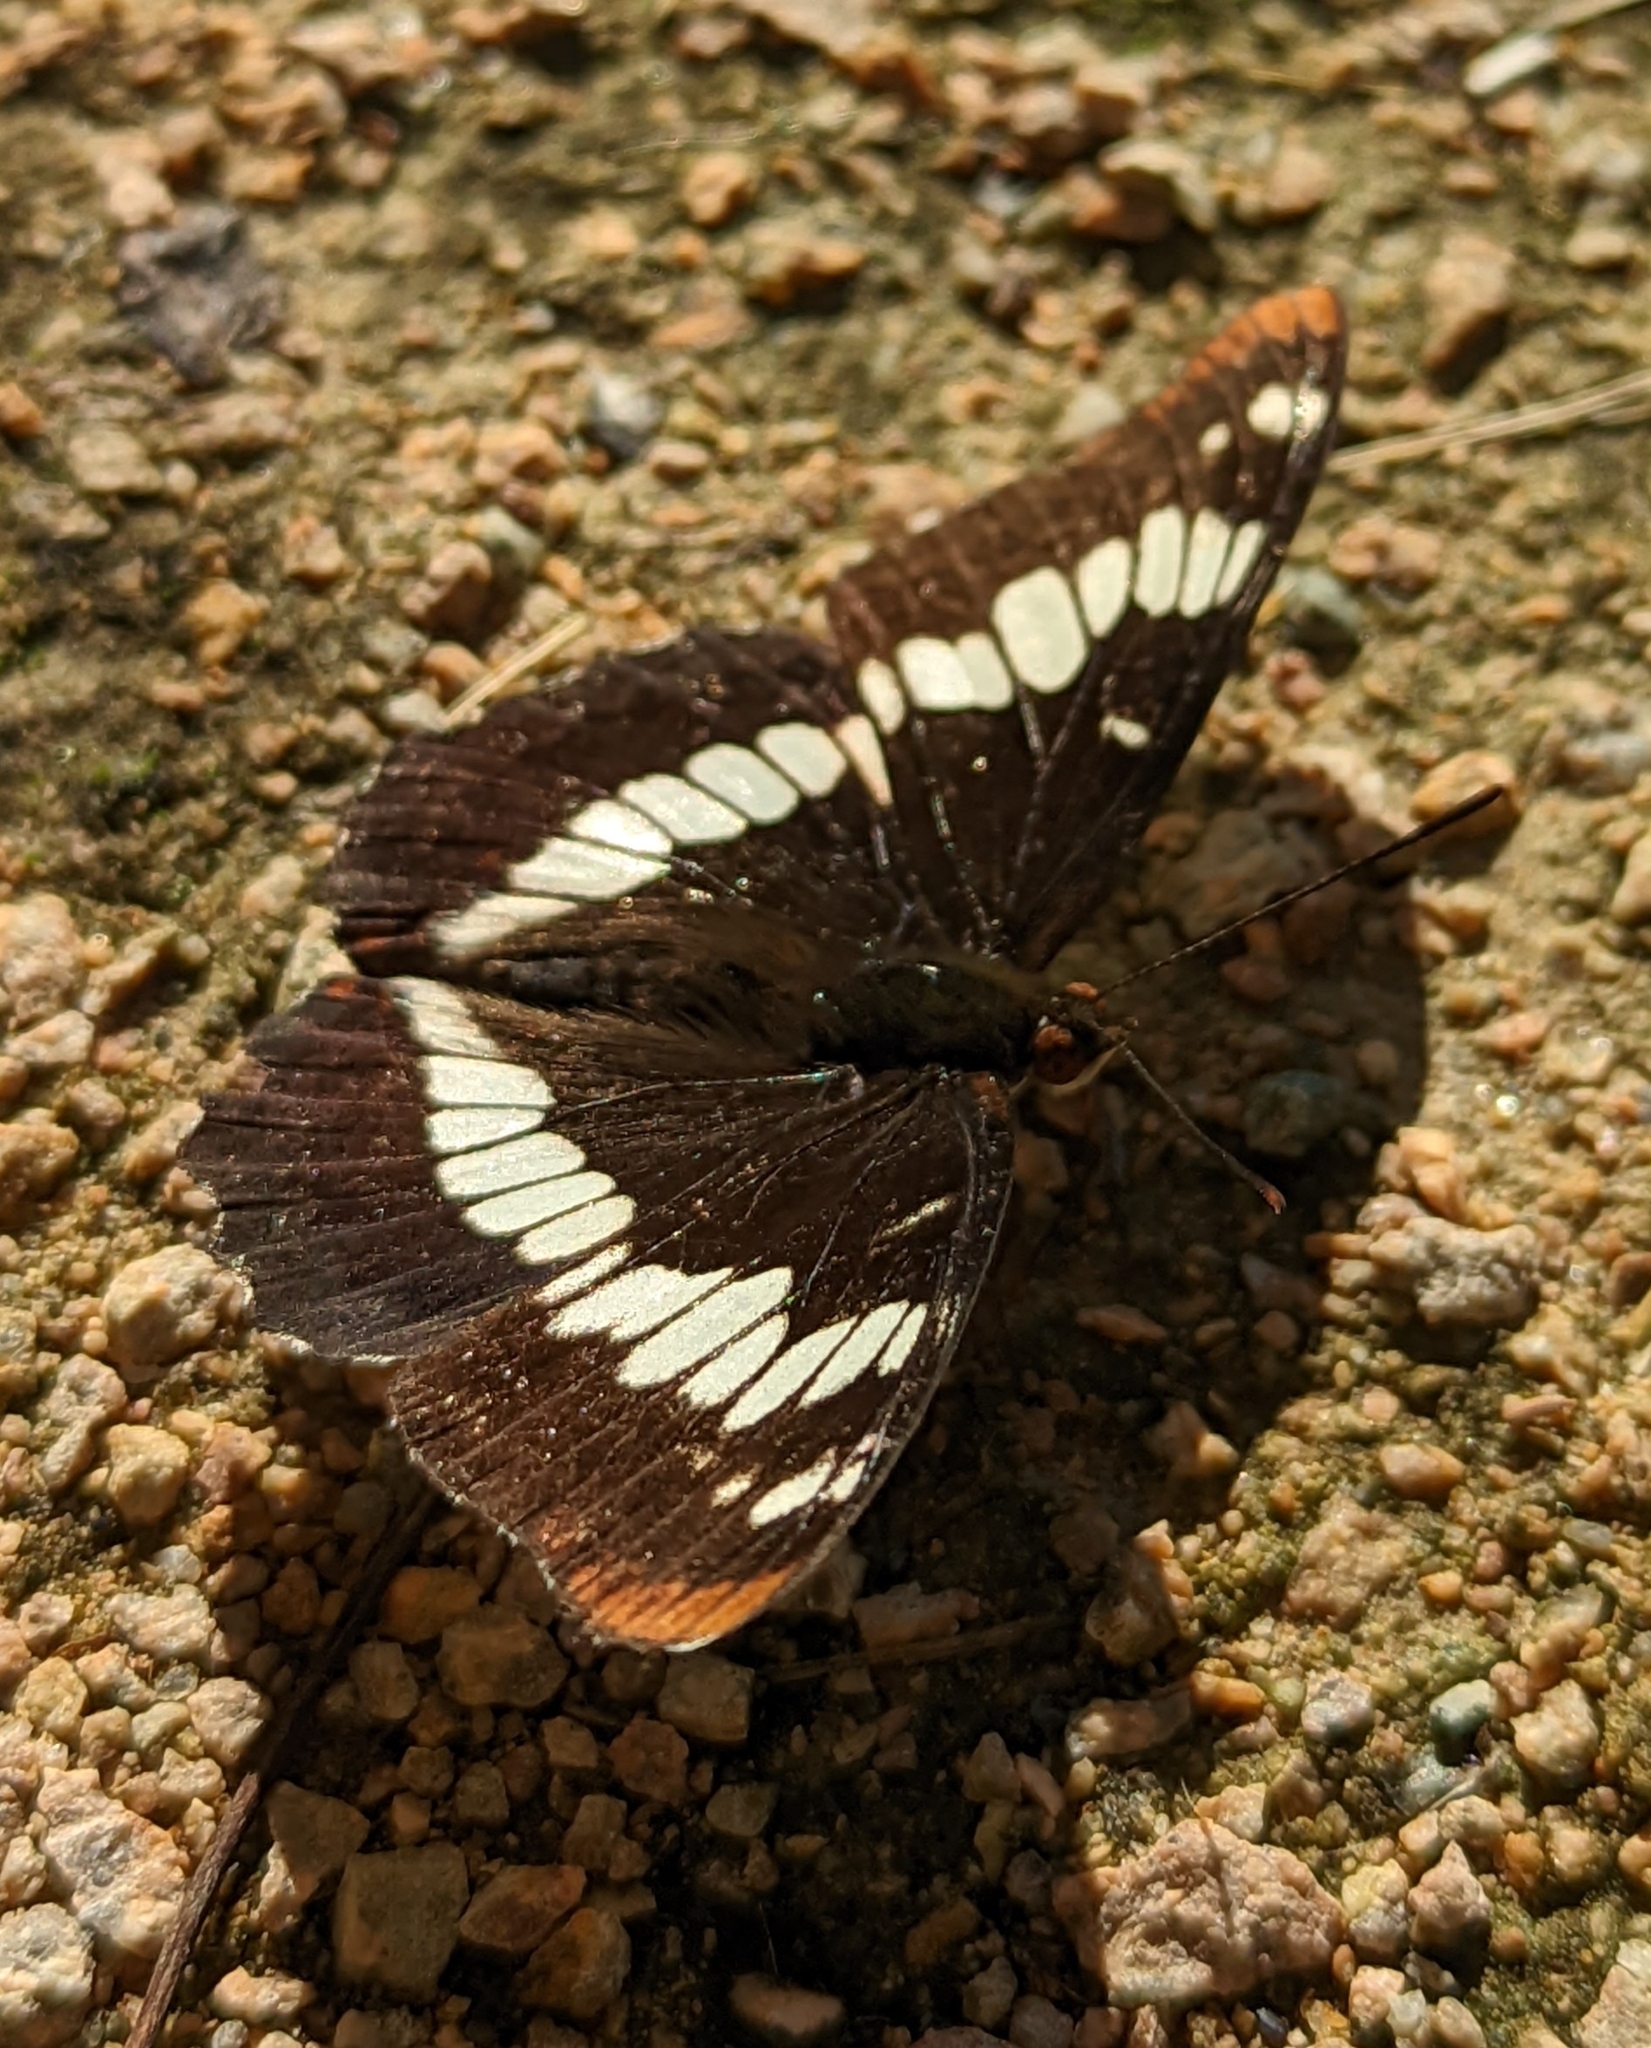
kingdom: Animalia
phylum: Arthropoda
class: Insecta
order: Lepidoptera
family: Nymphalidae
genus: Limenitis
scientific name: Limenitis lorquini
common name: Lorquin's admiral
